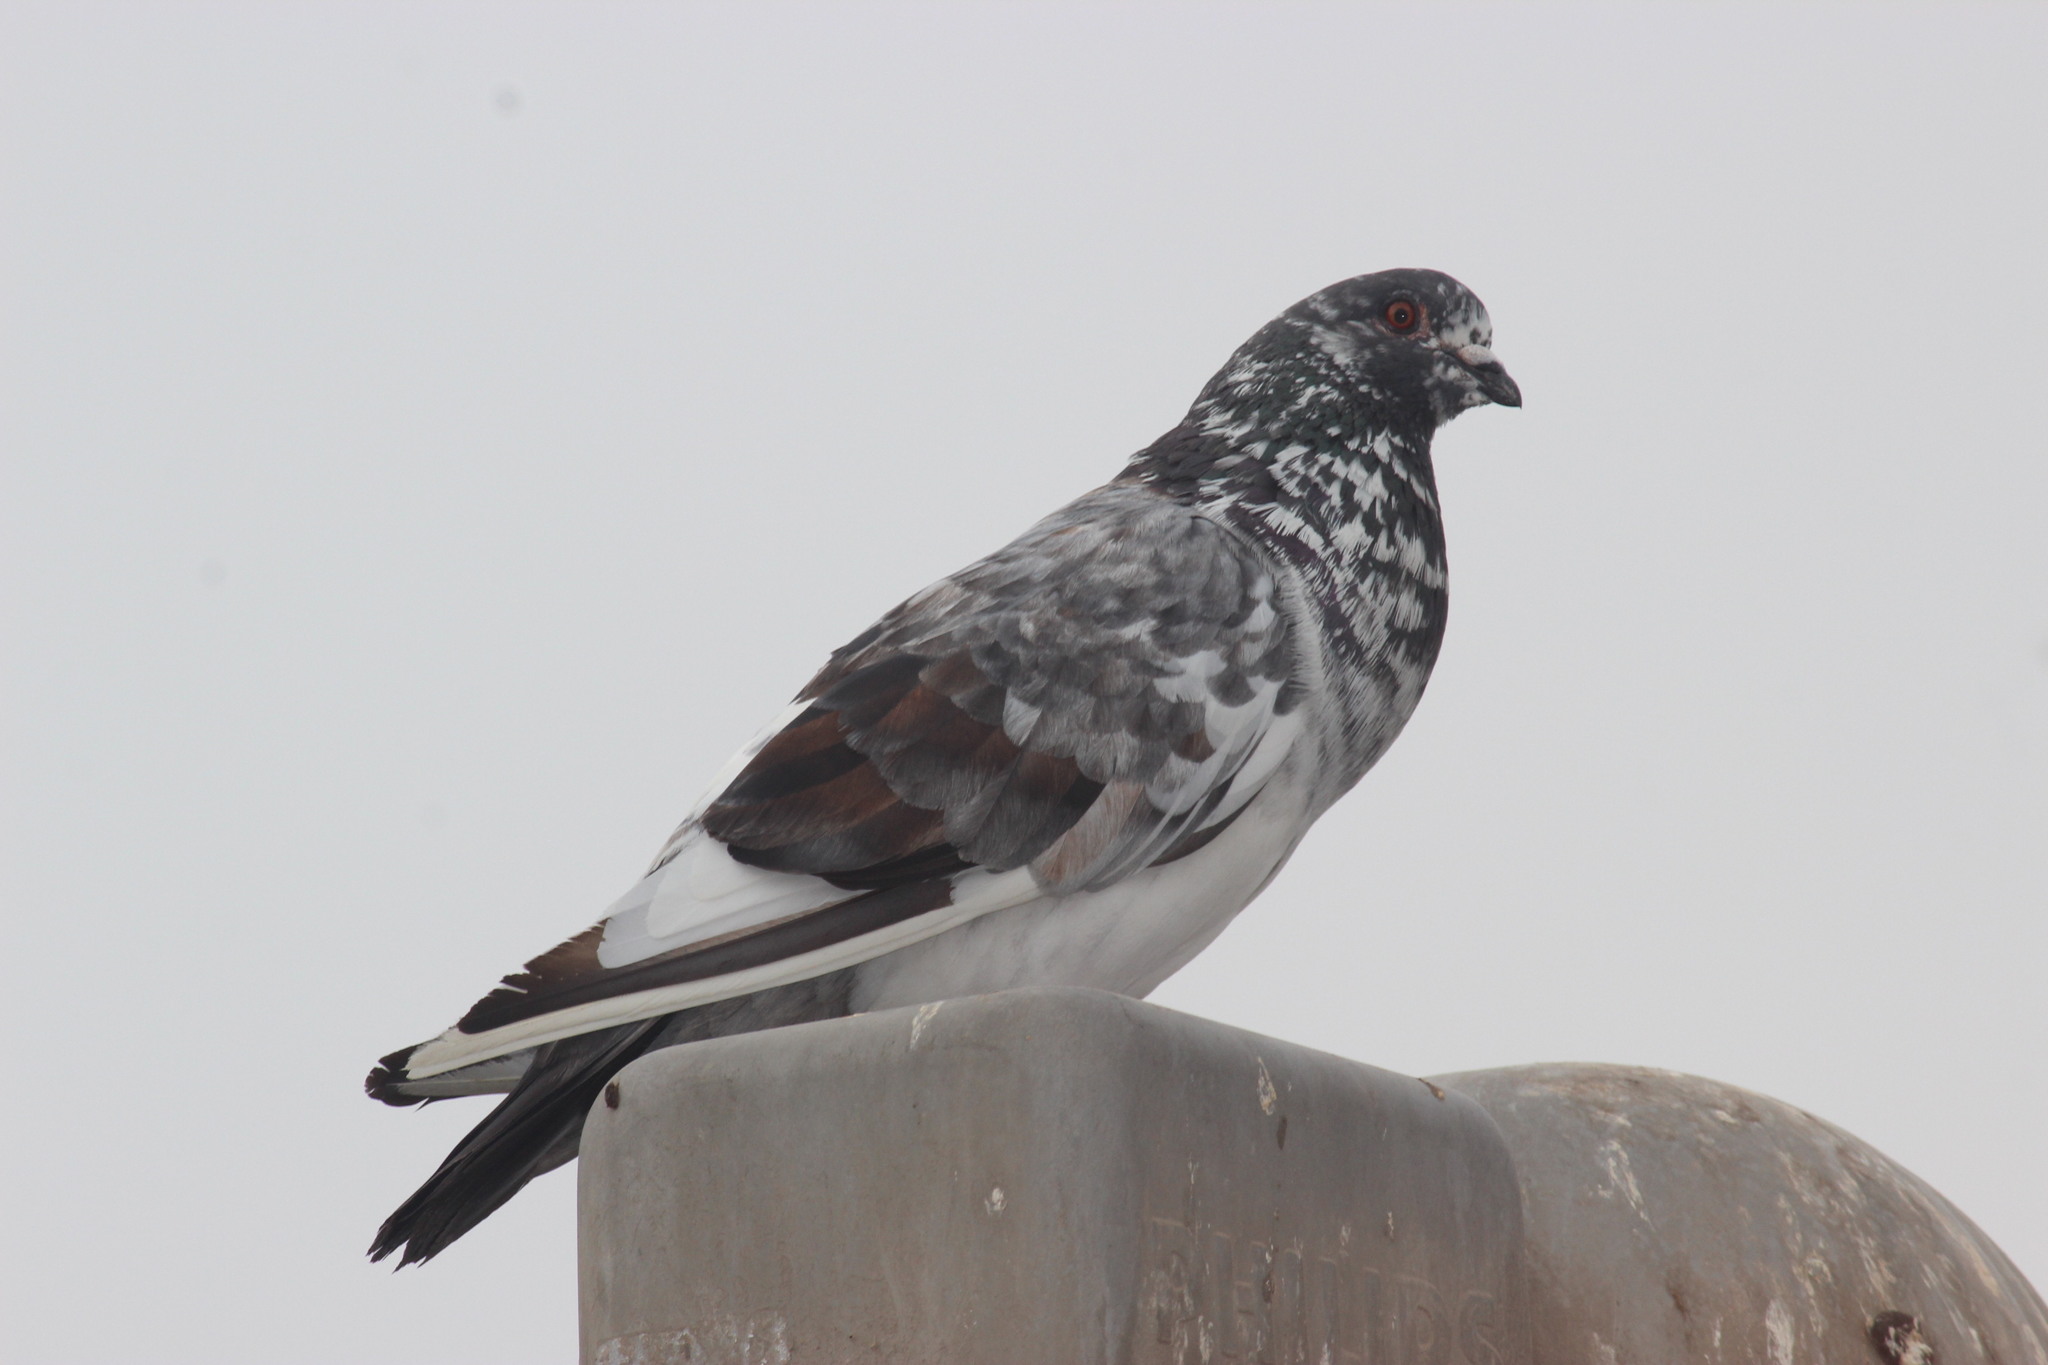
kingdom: Animalia
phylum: Chordata
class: Aves
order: Columbiformes
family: Columbidae
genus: Columba
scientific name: Columba livia
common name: Rock pigeon
